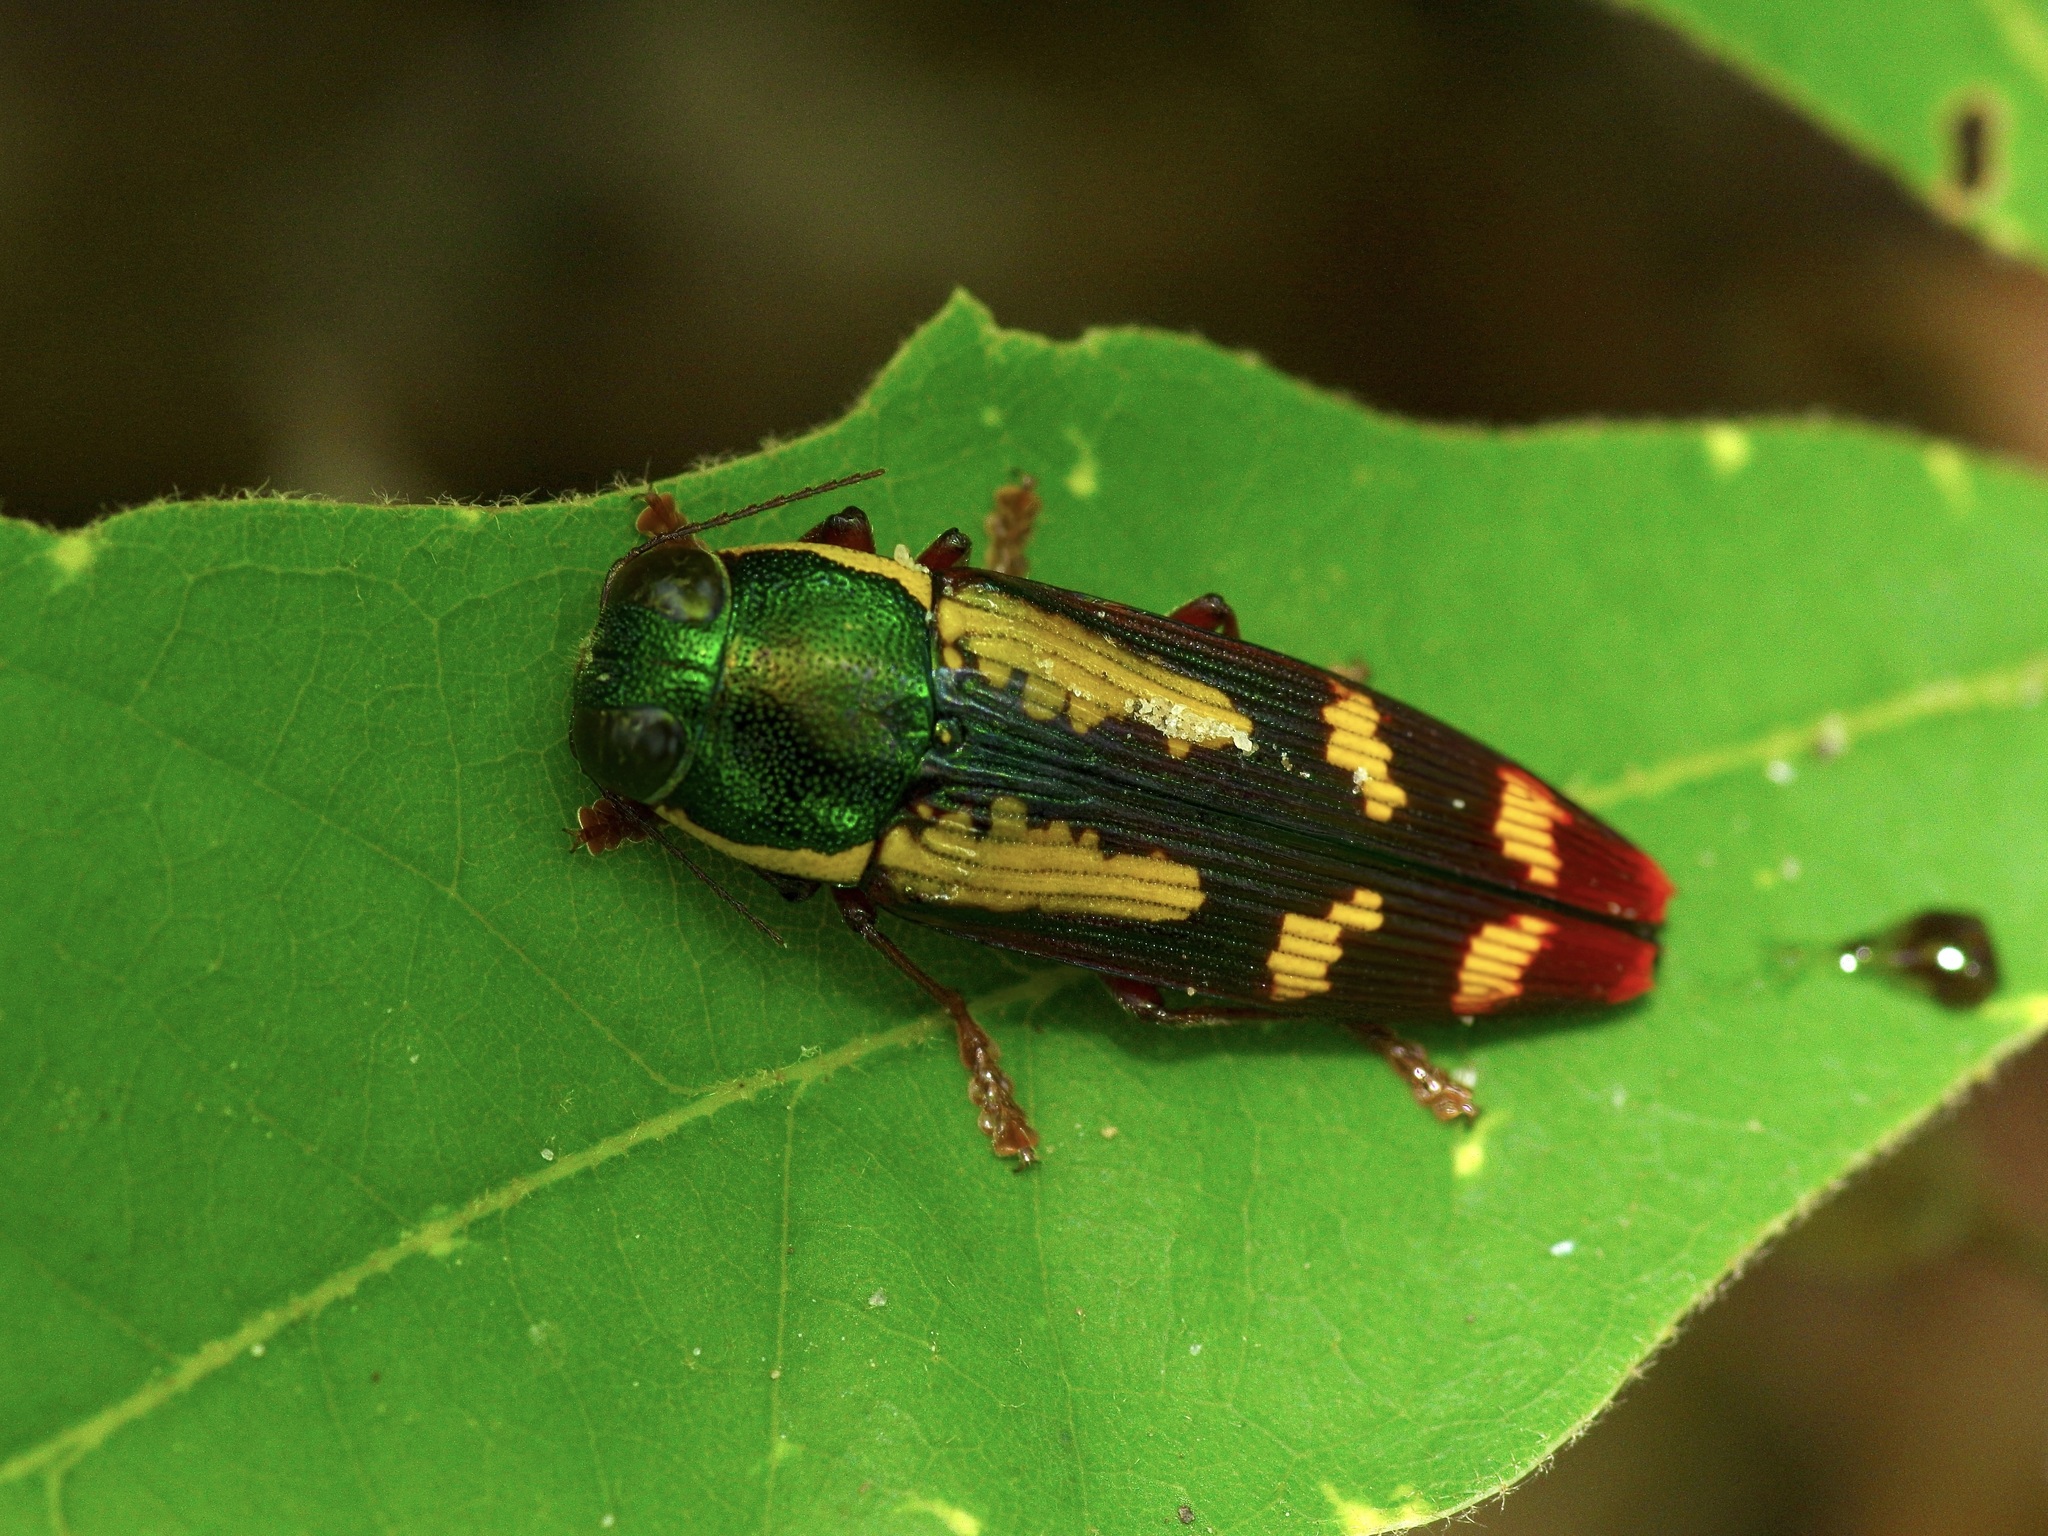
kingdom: Animalia
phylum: Arthropoda
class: Insecta
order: Coleoptera
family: Buprestidae
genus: Buprestis
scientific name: Buprestis rufipes
